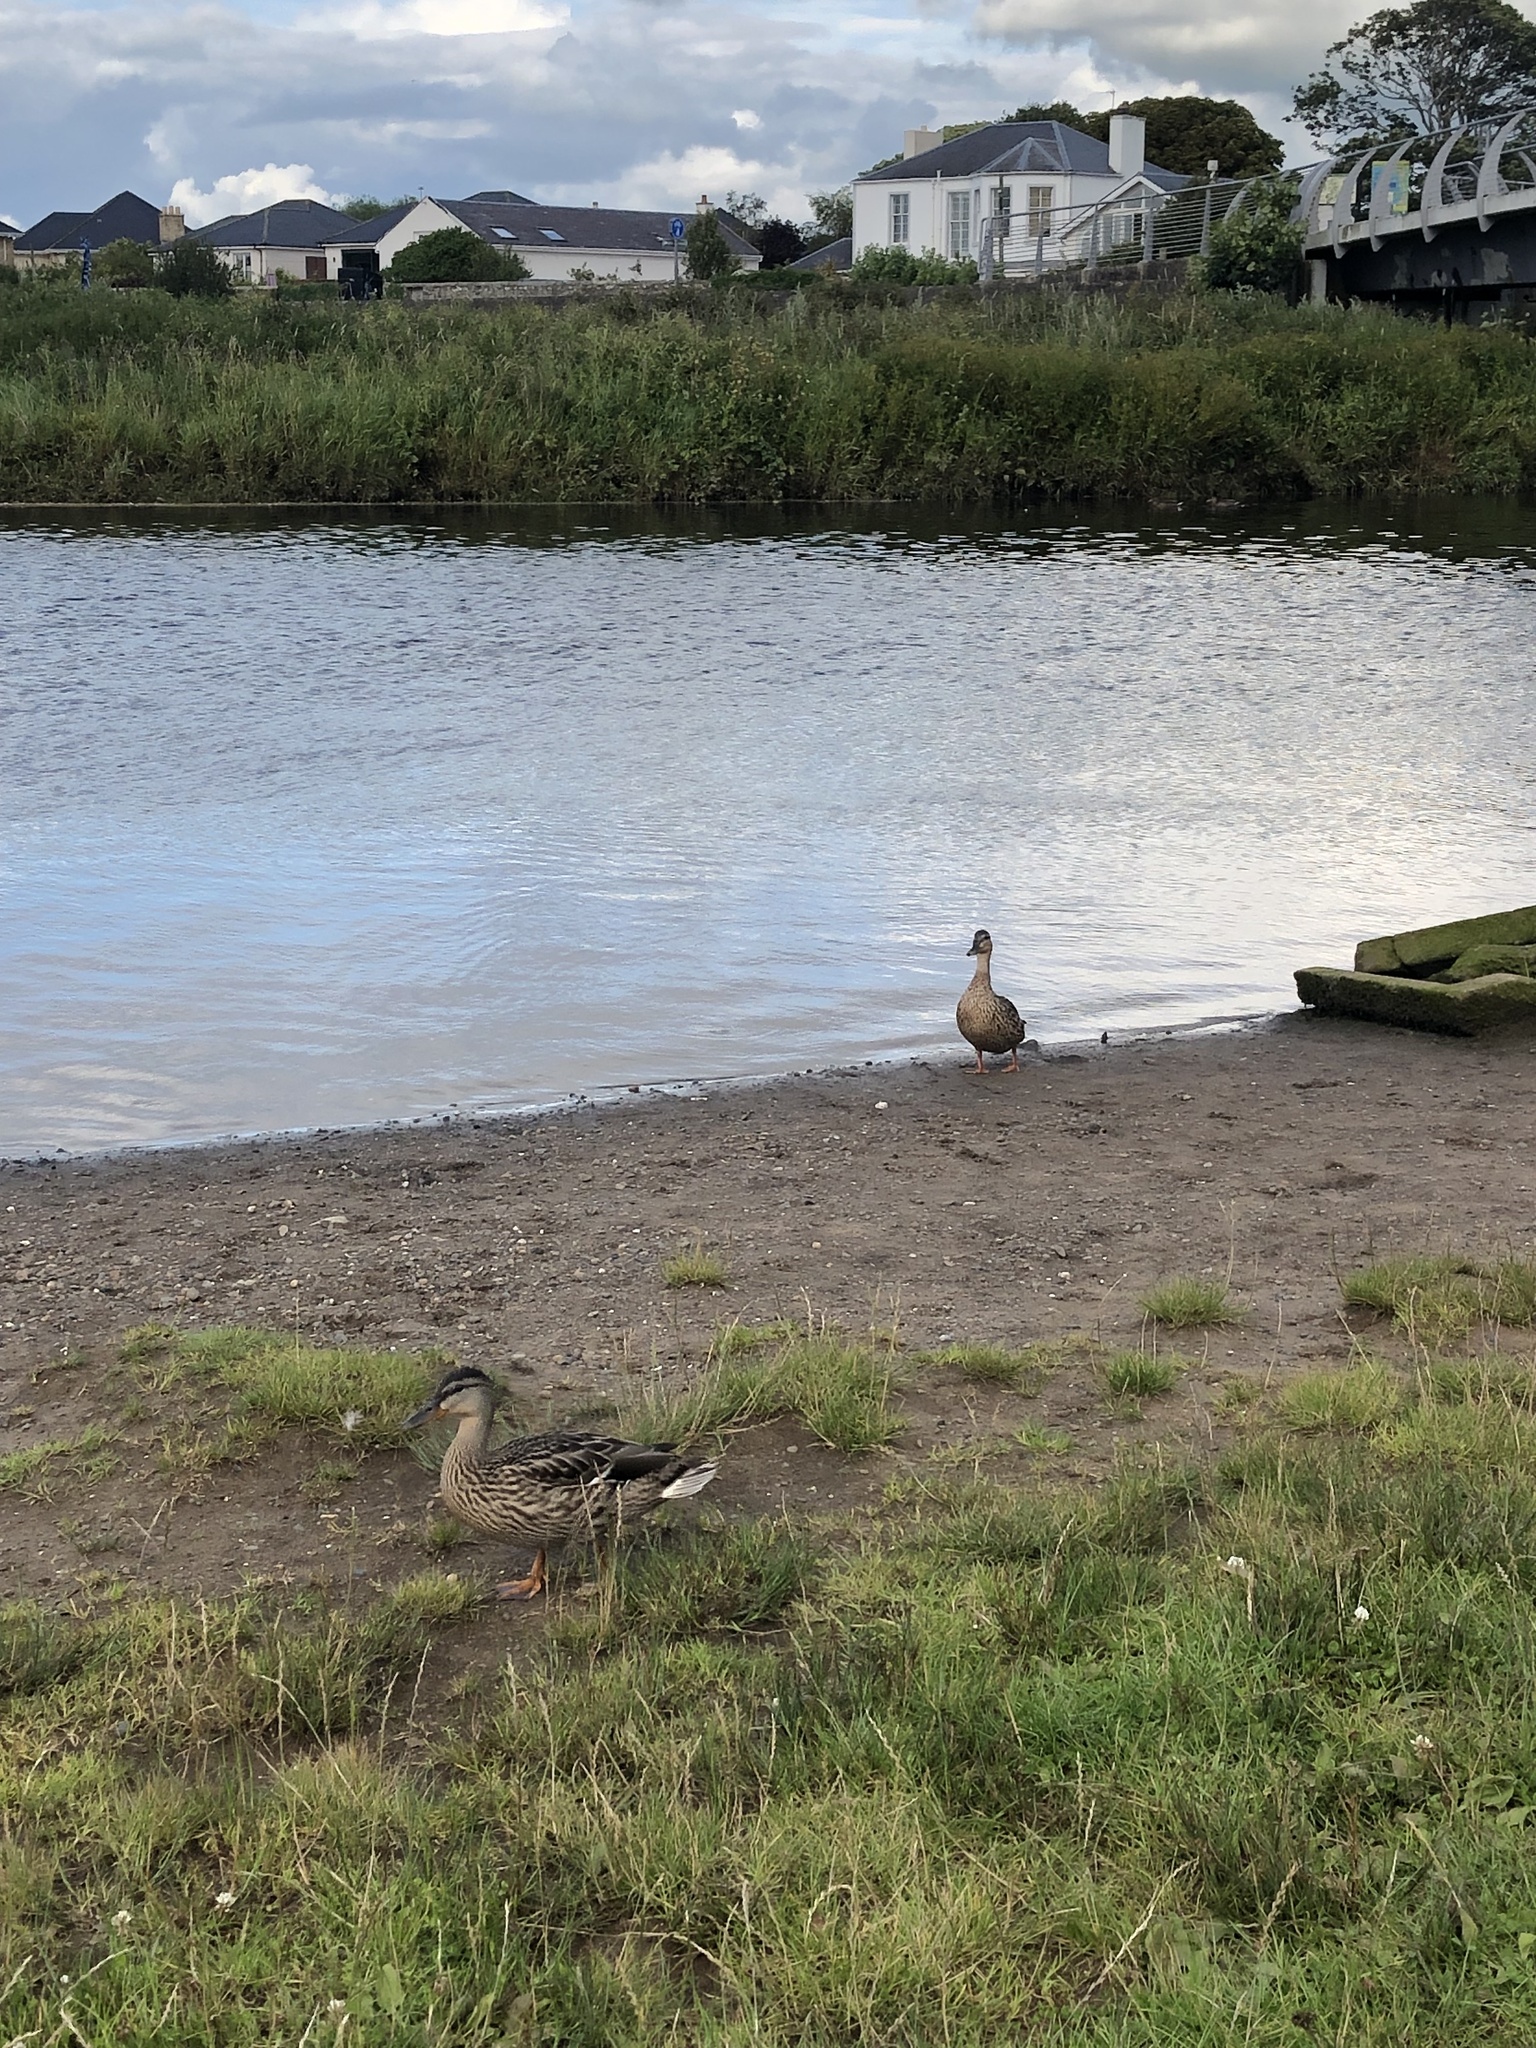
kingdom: Animalia
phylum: Chordata
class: Aves
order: Anseriformes
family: Anatidae
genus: Anas
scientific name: Anas platyrhynchos
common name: Mallard
